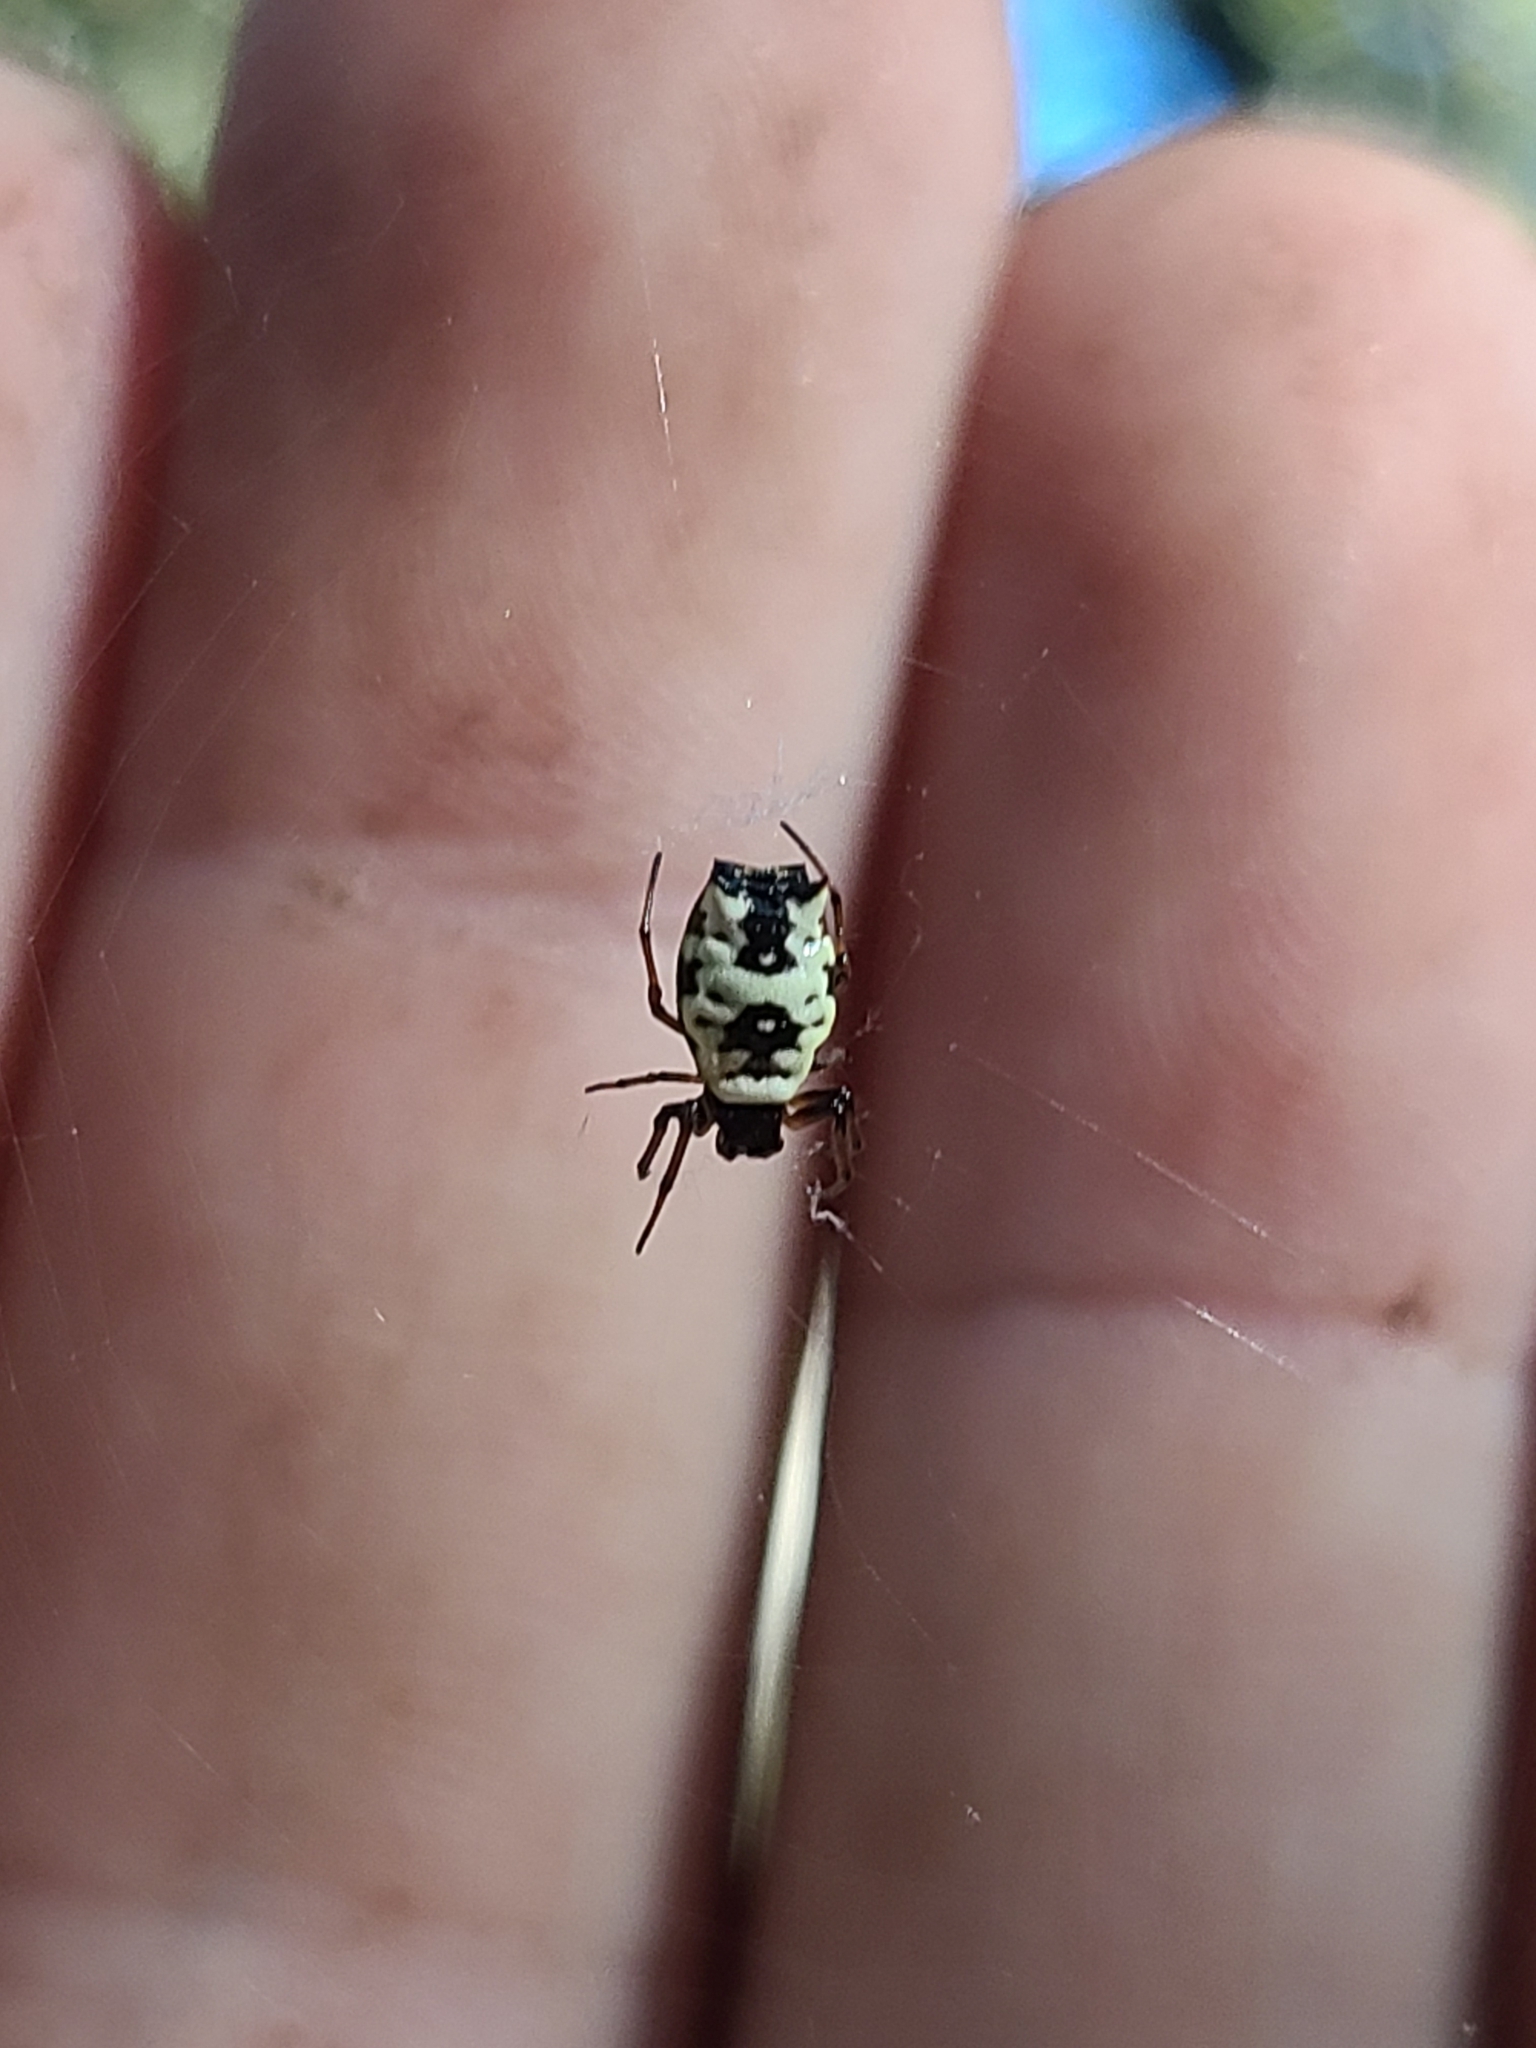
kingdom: Animalia
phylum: Arthropoda
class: Arachnida
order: Araneae
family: Araneidae
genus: Micrathena
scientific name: Micrathena mitrata
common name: Orb weavers
